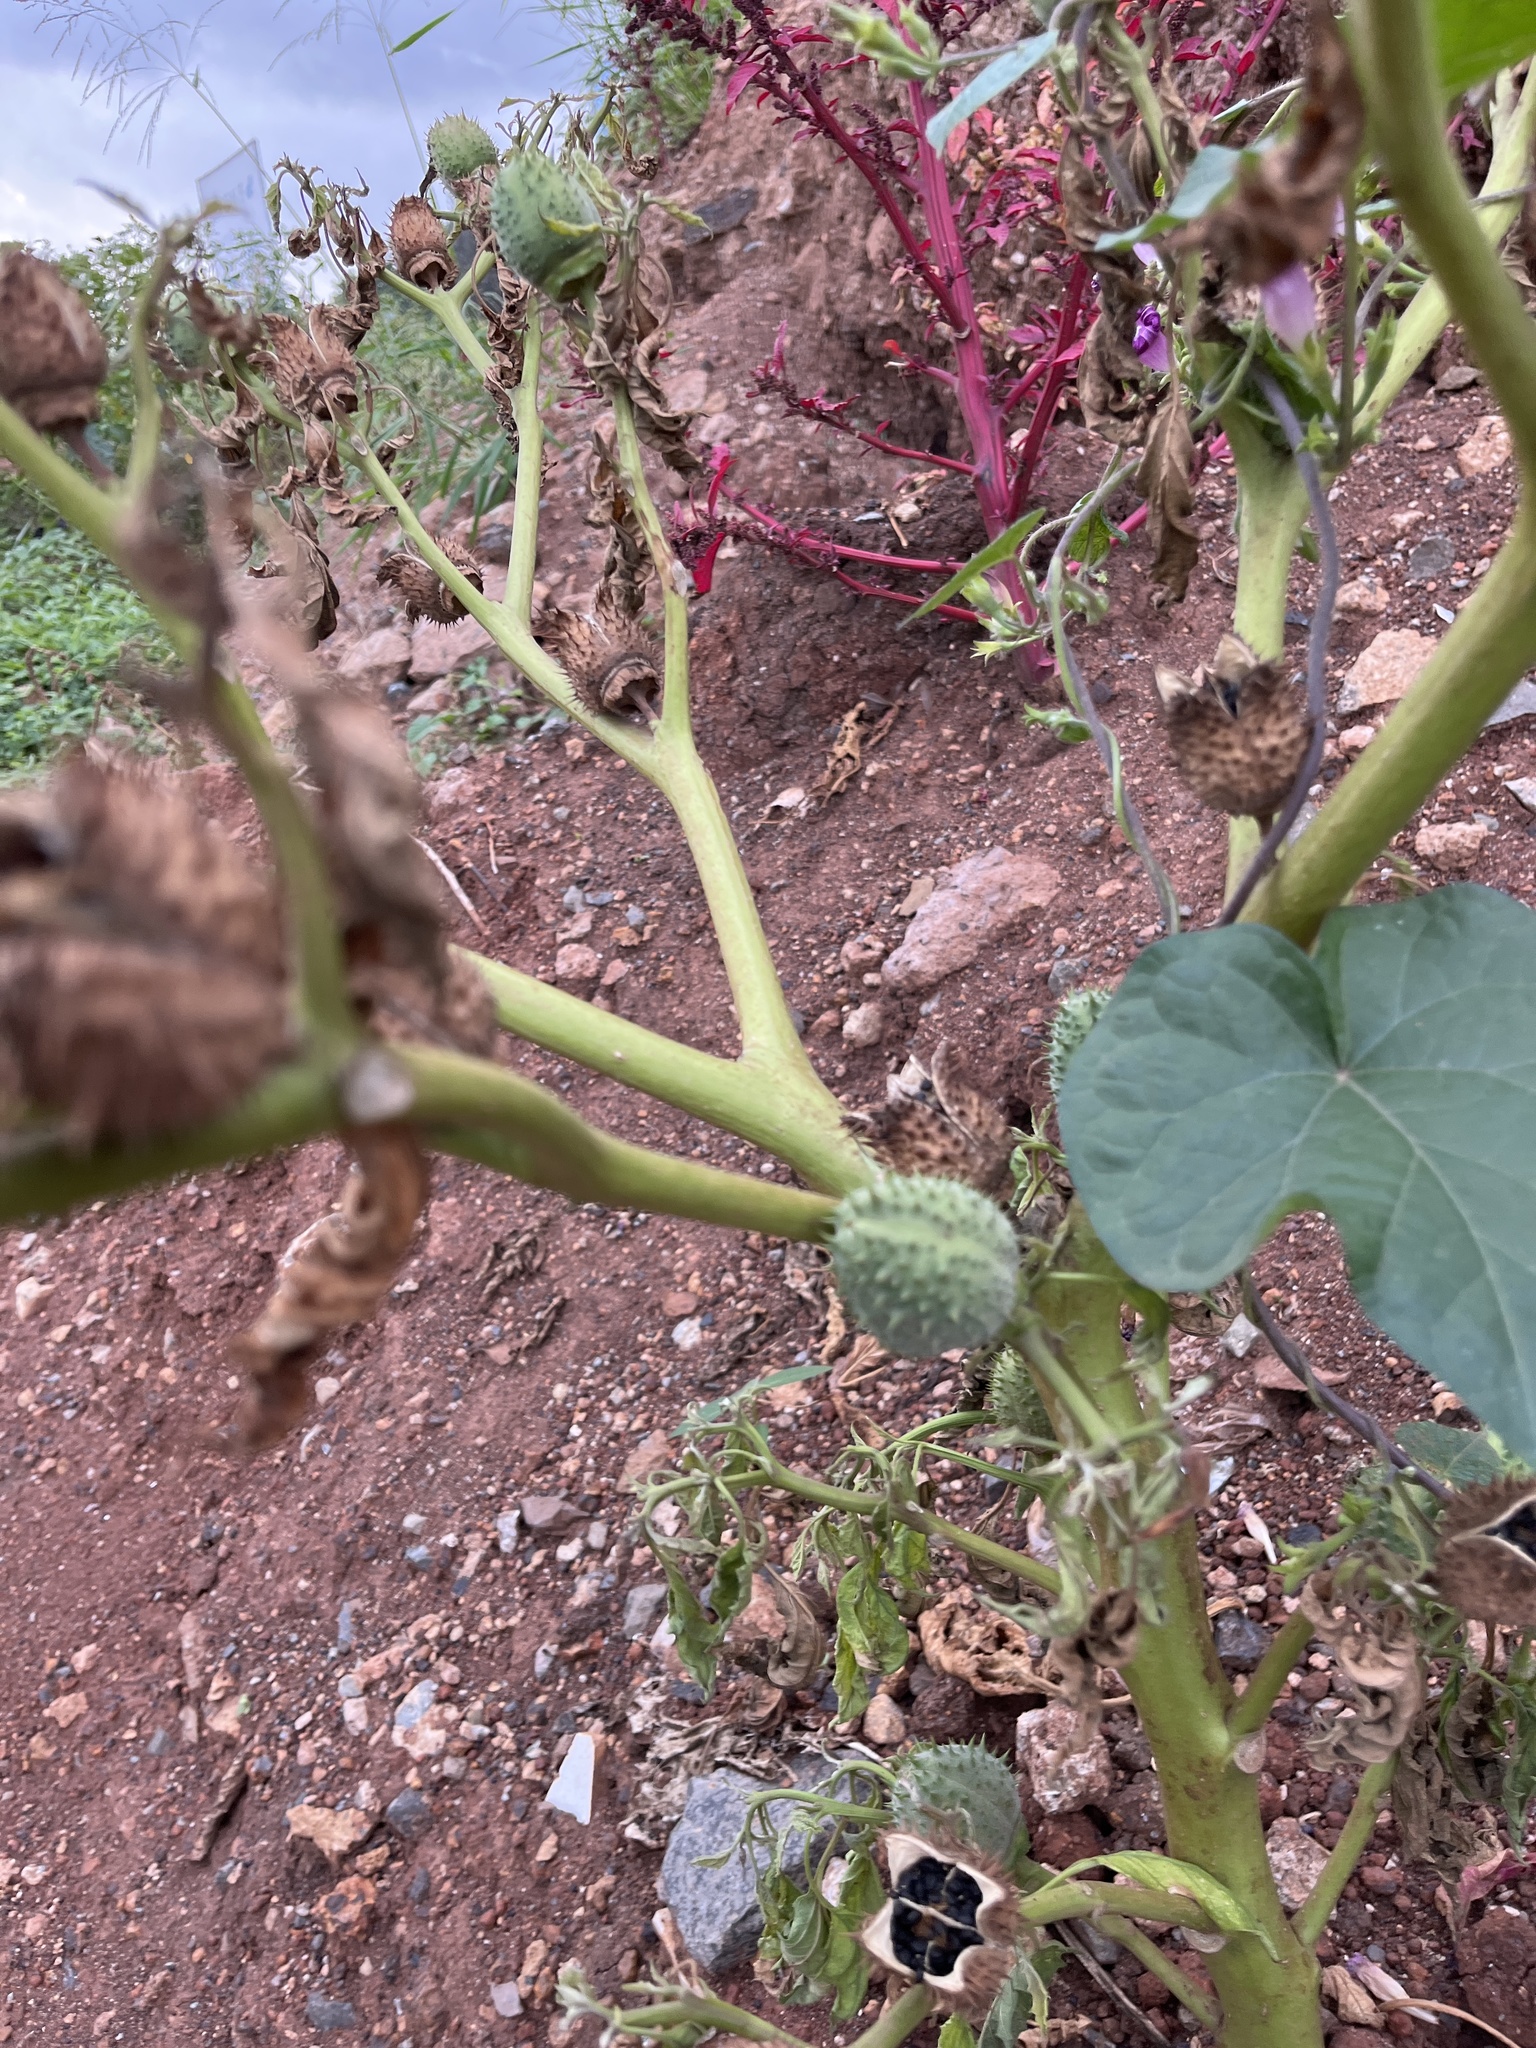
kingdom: Plantae
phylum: Tracheophyta
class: Magnoliopsida
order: Solanales
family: Solanaceae
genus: Datura
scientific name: Datura stramonium
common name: Thorn-apple
